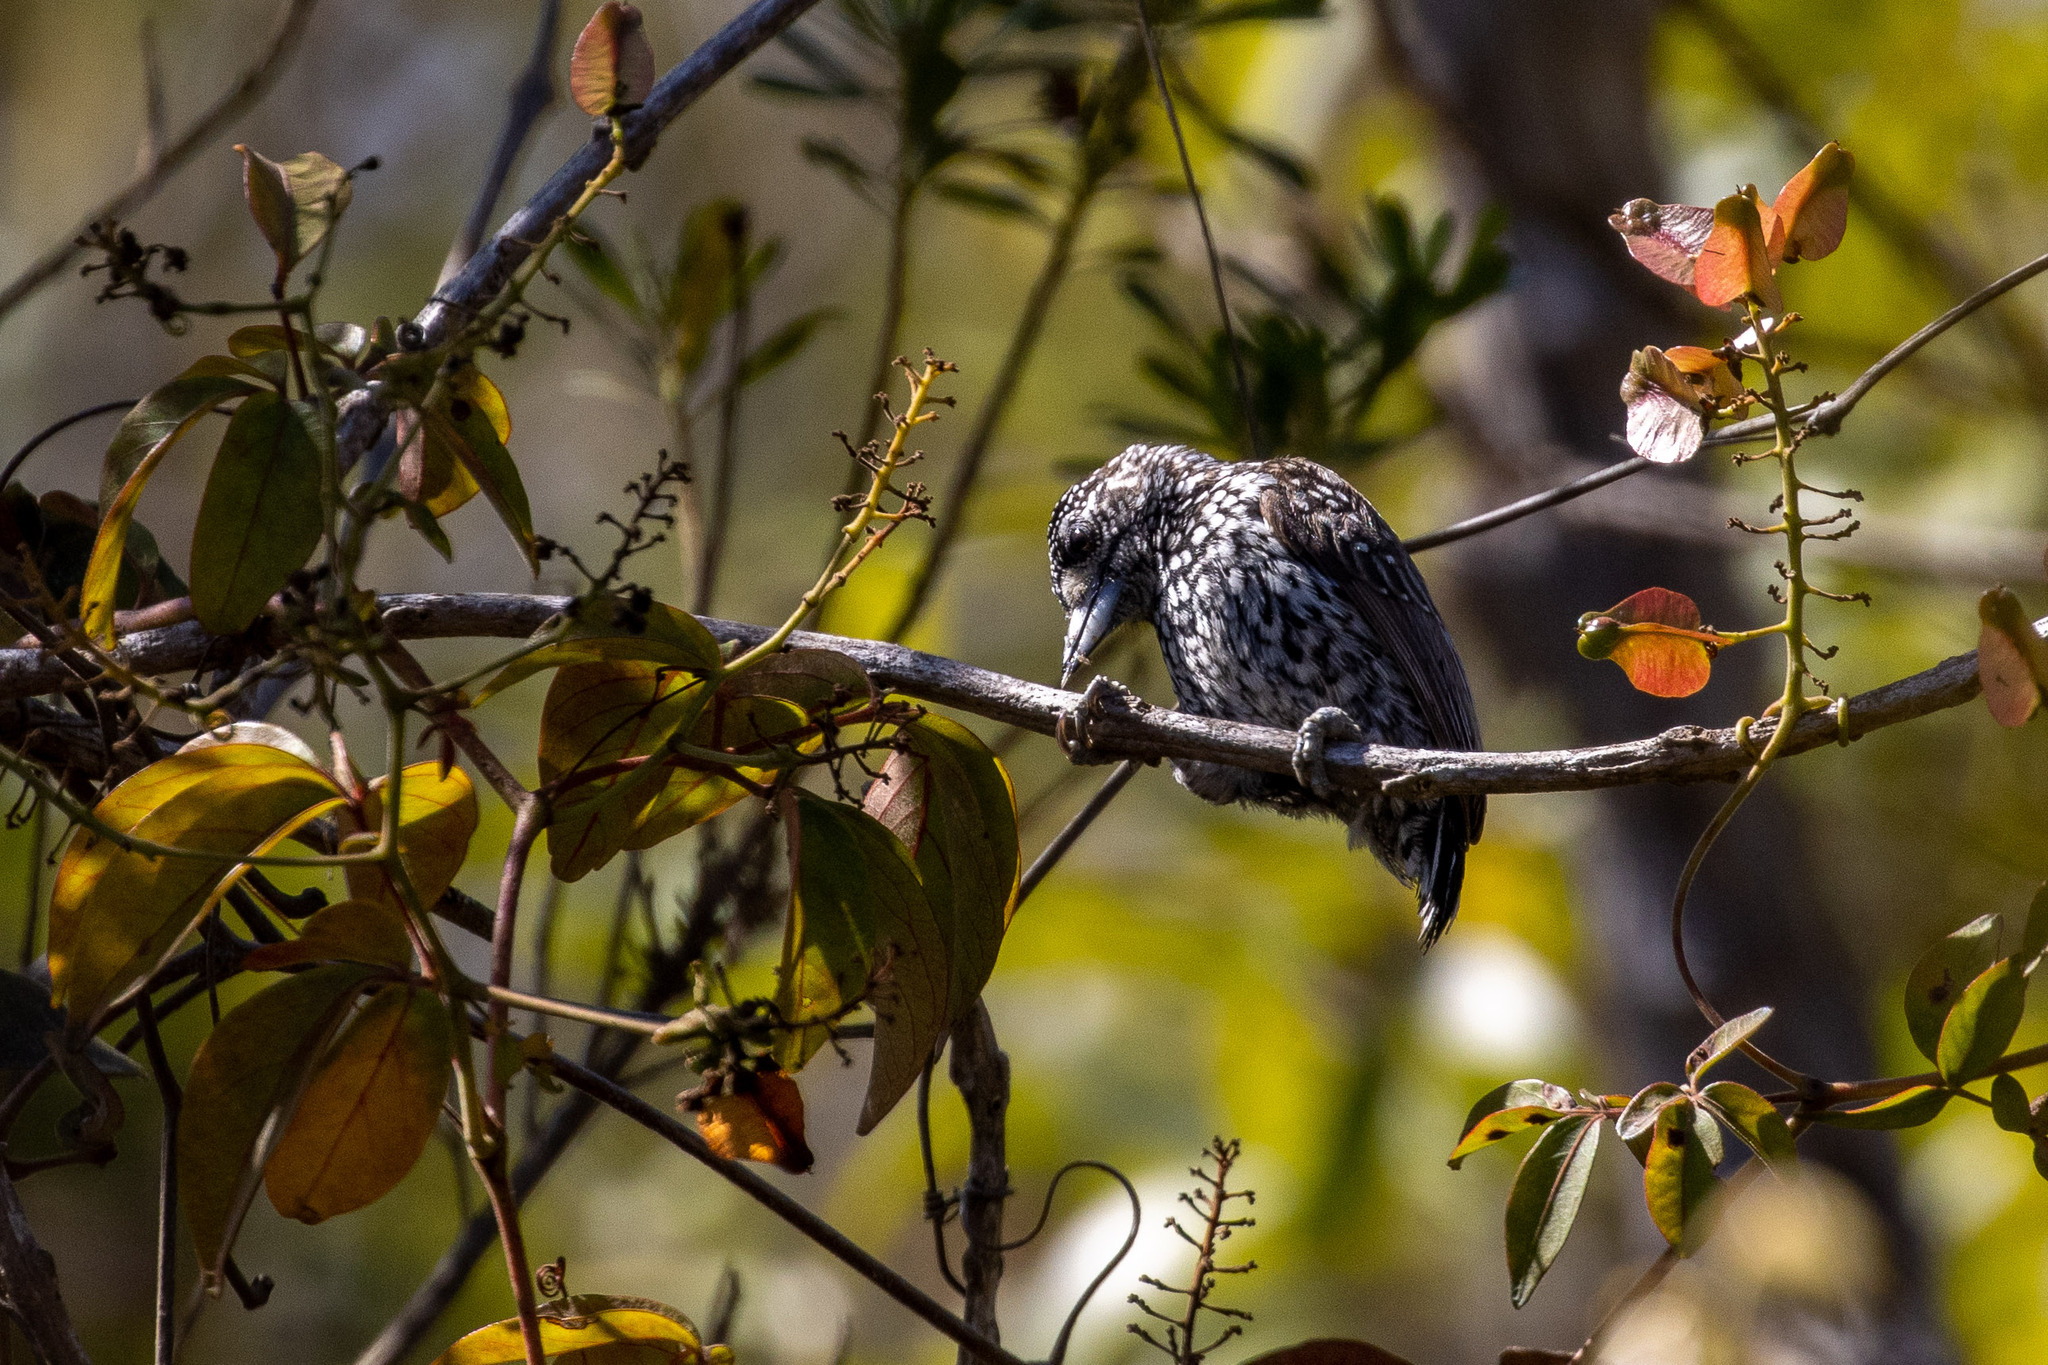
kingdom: Animalia
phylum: Chordata
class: Aves
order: Piciformes
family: Picidae
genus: Picumnus
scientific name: Picumnus albosquamatus
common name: White-wedged piculet
